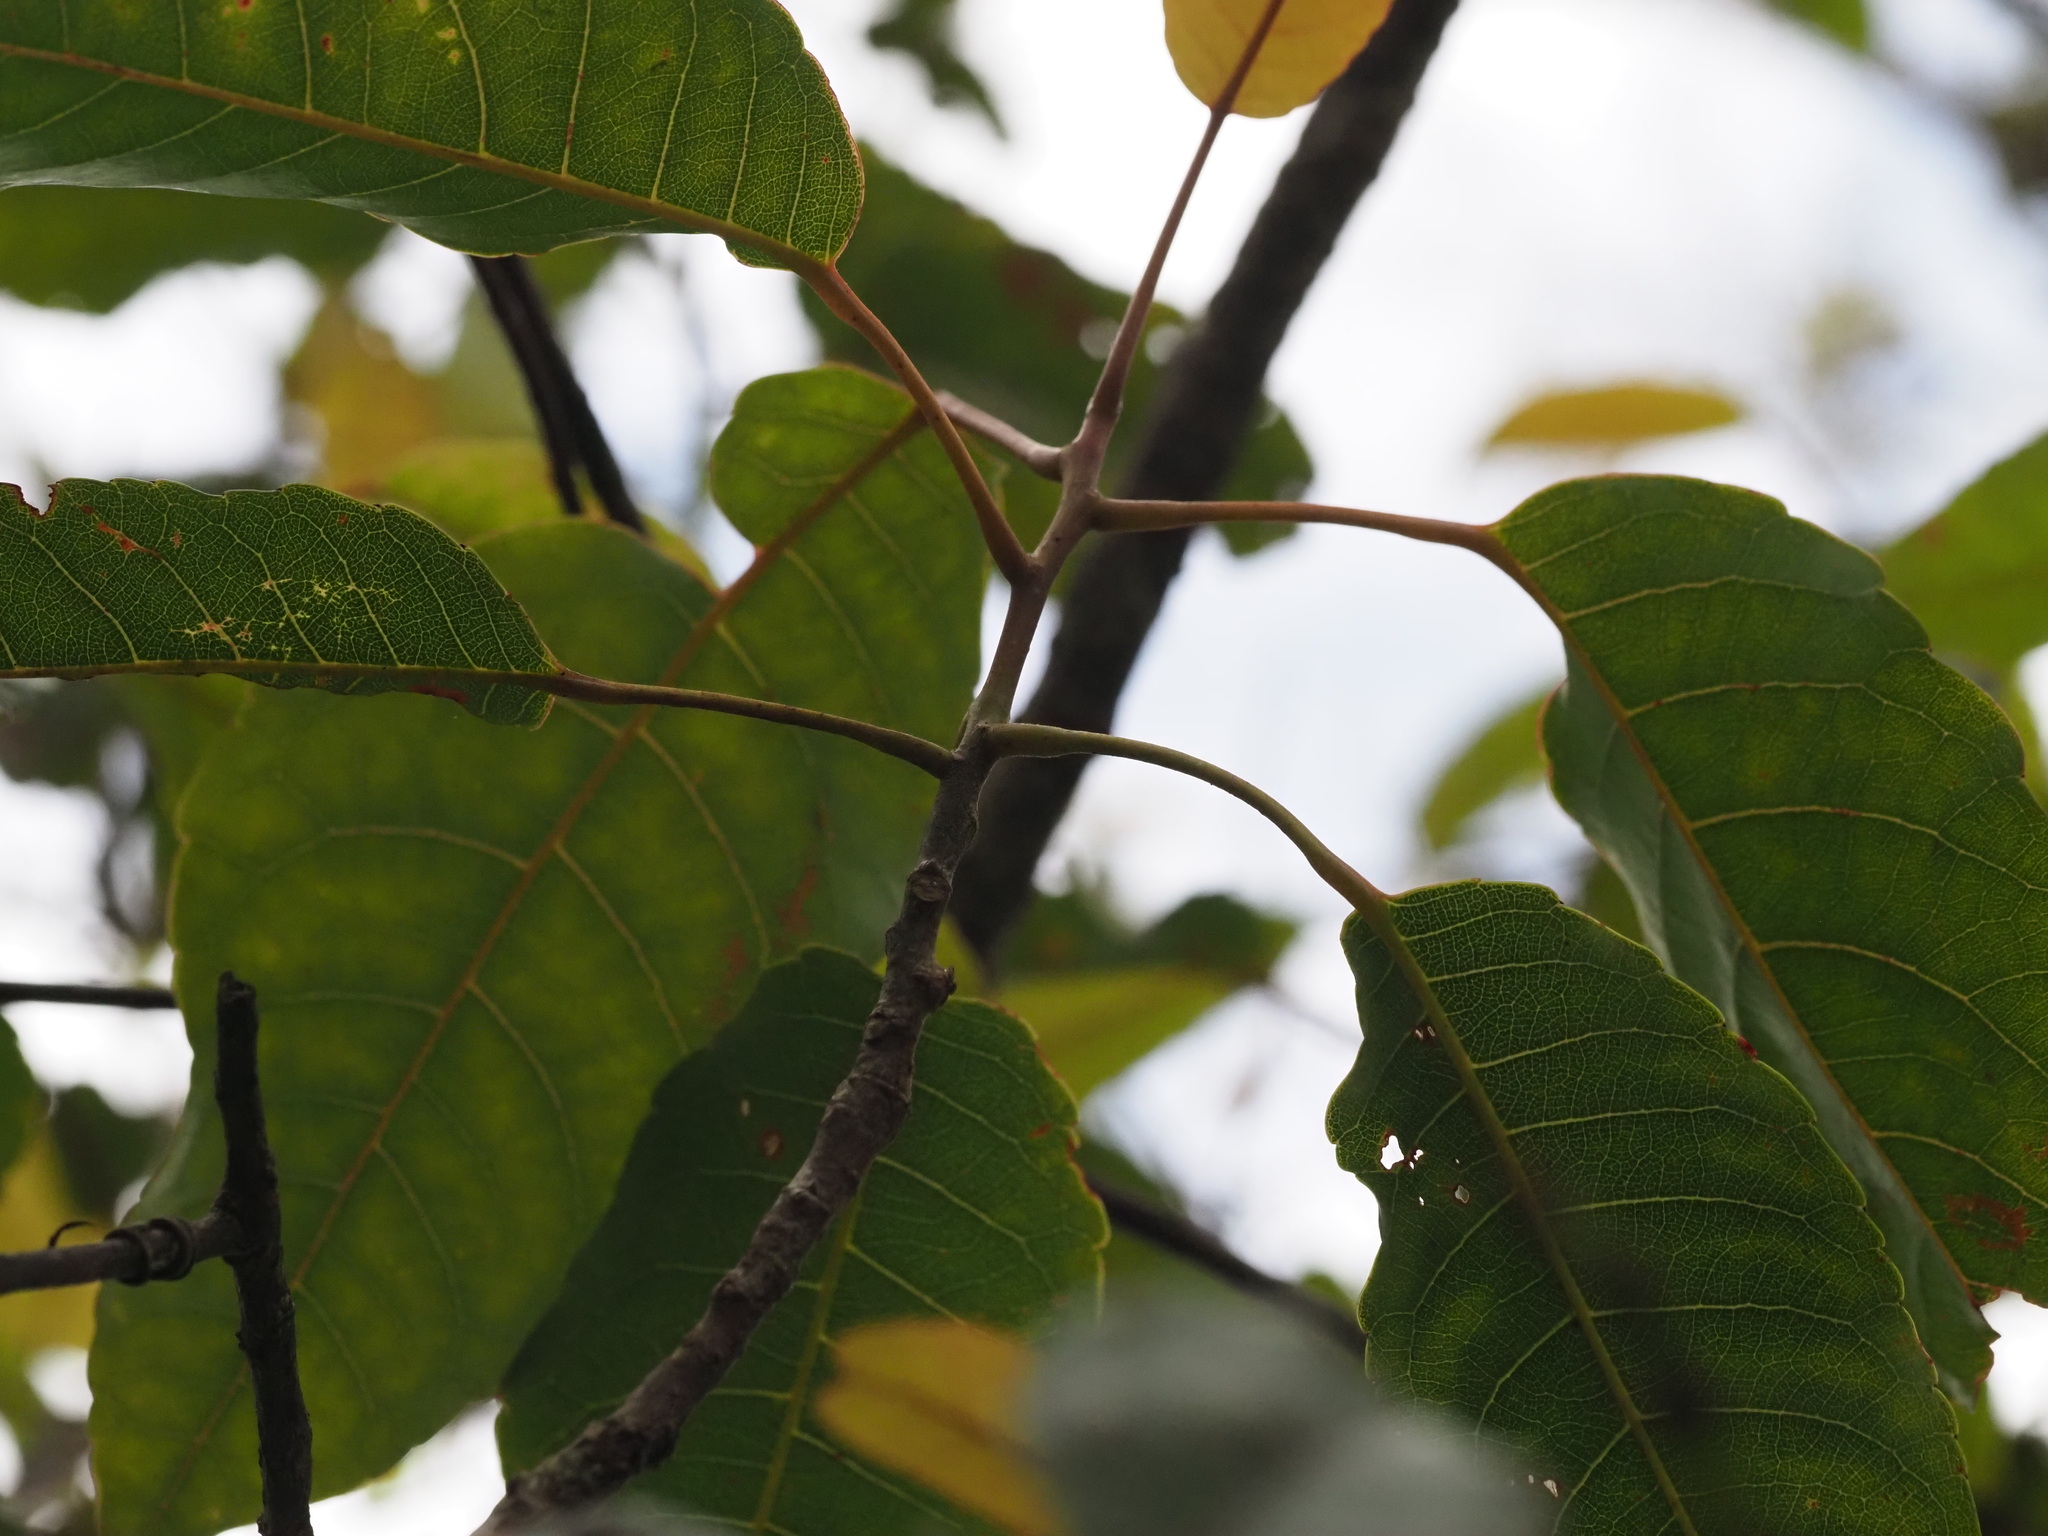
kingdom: Plantae
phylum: Tracheophyta
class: Magnoliopsida
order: Oxalidales
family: Elaeocarpaceae
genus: Elaeocarpus
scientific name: Elaeocarpus bifidus
